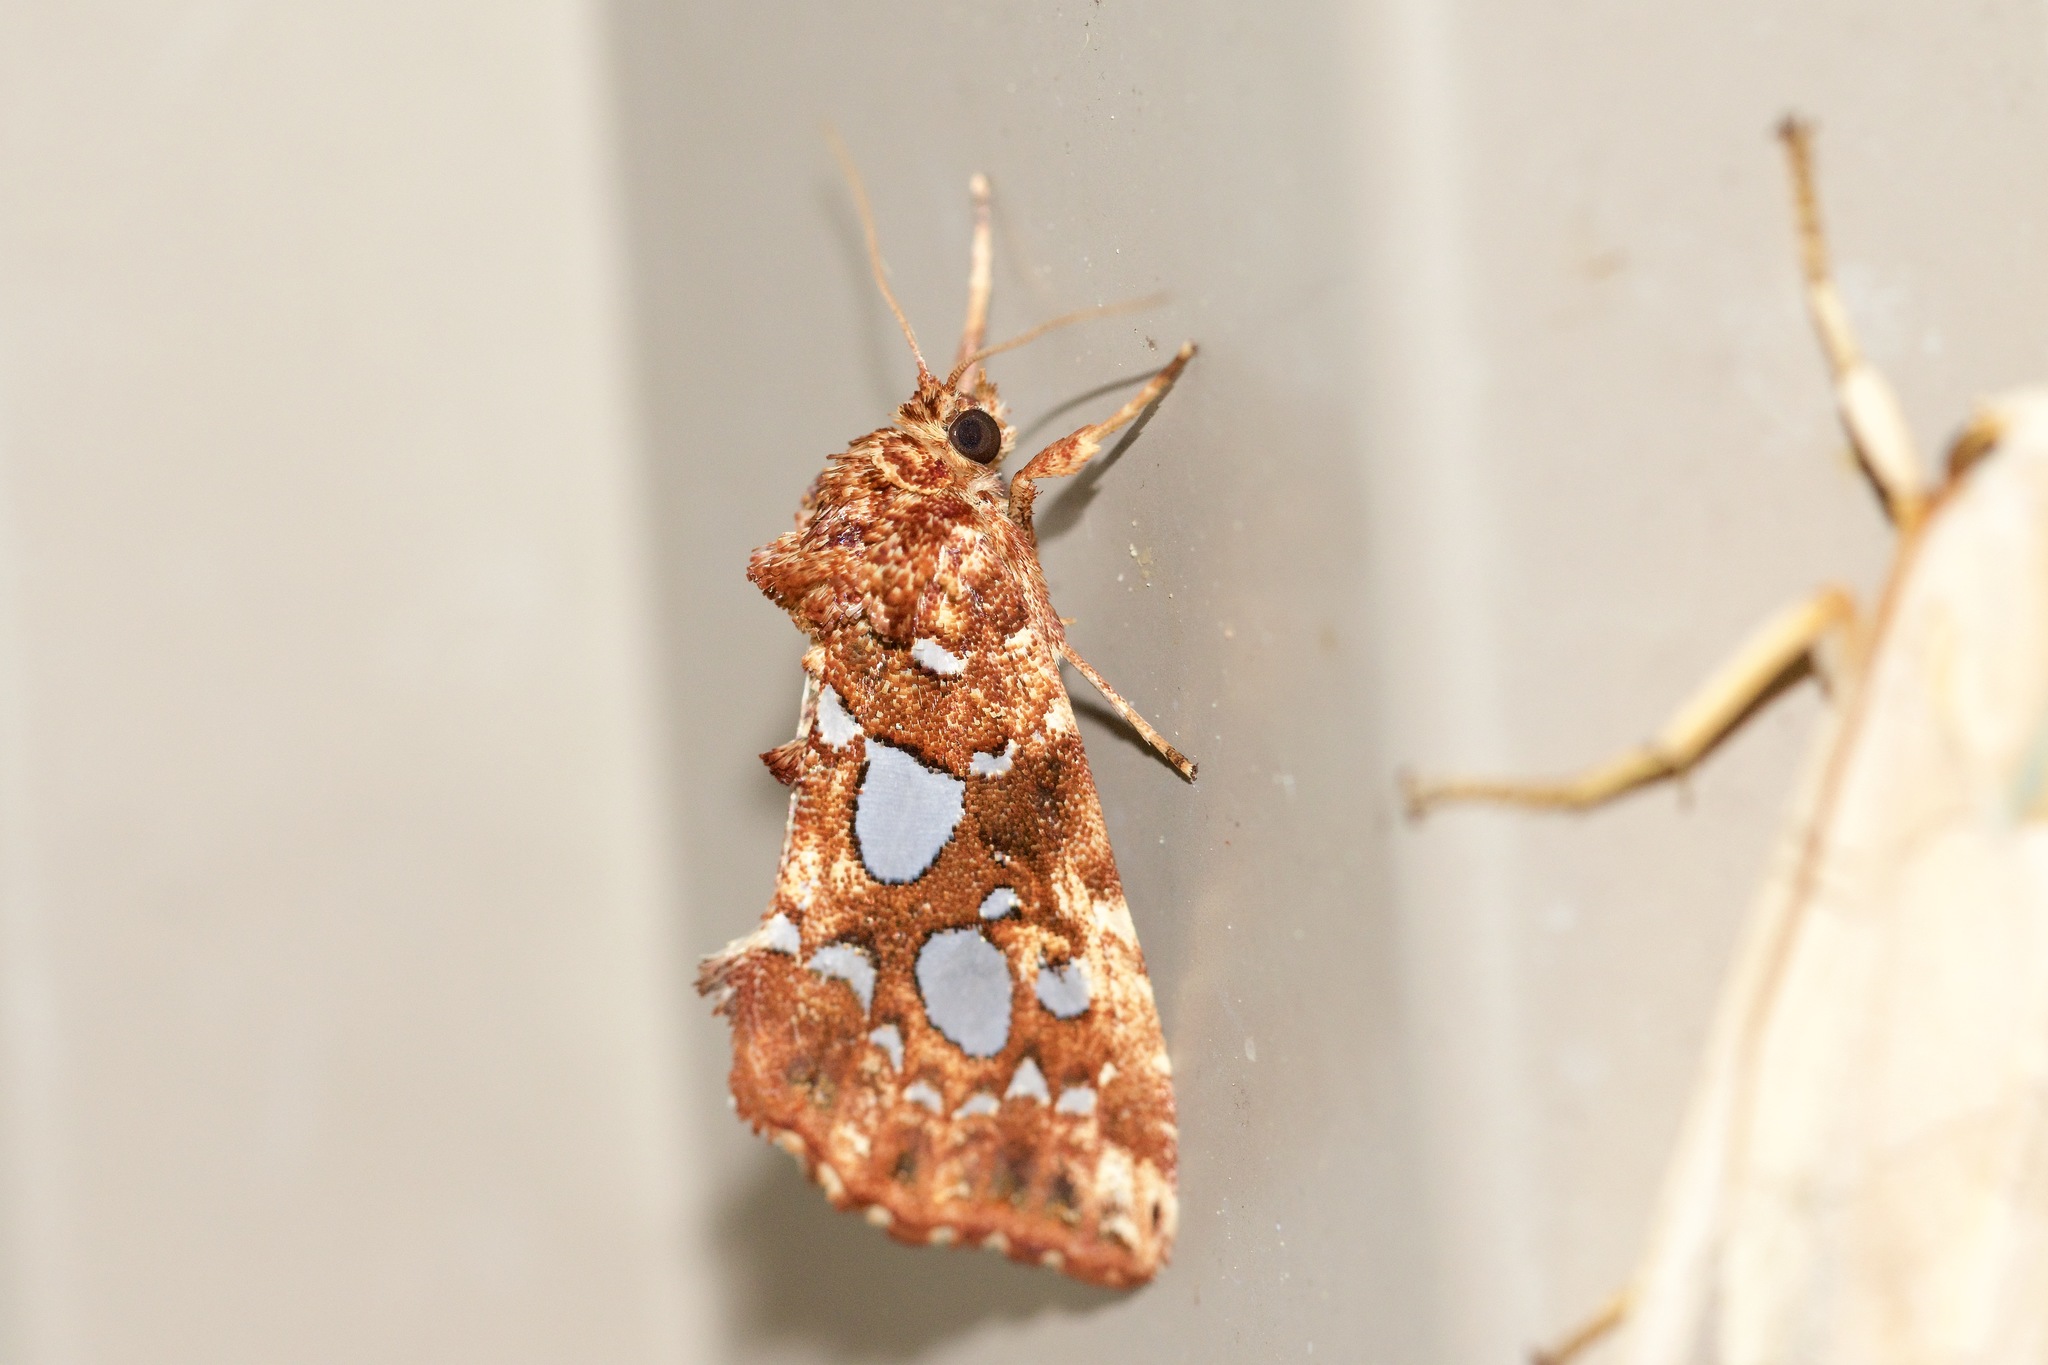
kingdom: Animalia
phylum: Arthropoda
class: Insecta
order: Lepidoptera
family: Noctuidae
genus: Callopistria
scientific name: Callopistria cordata
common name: Silver-spotted fern moth
